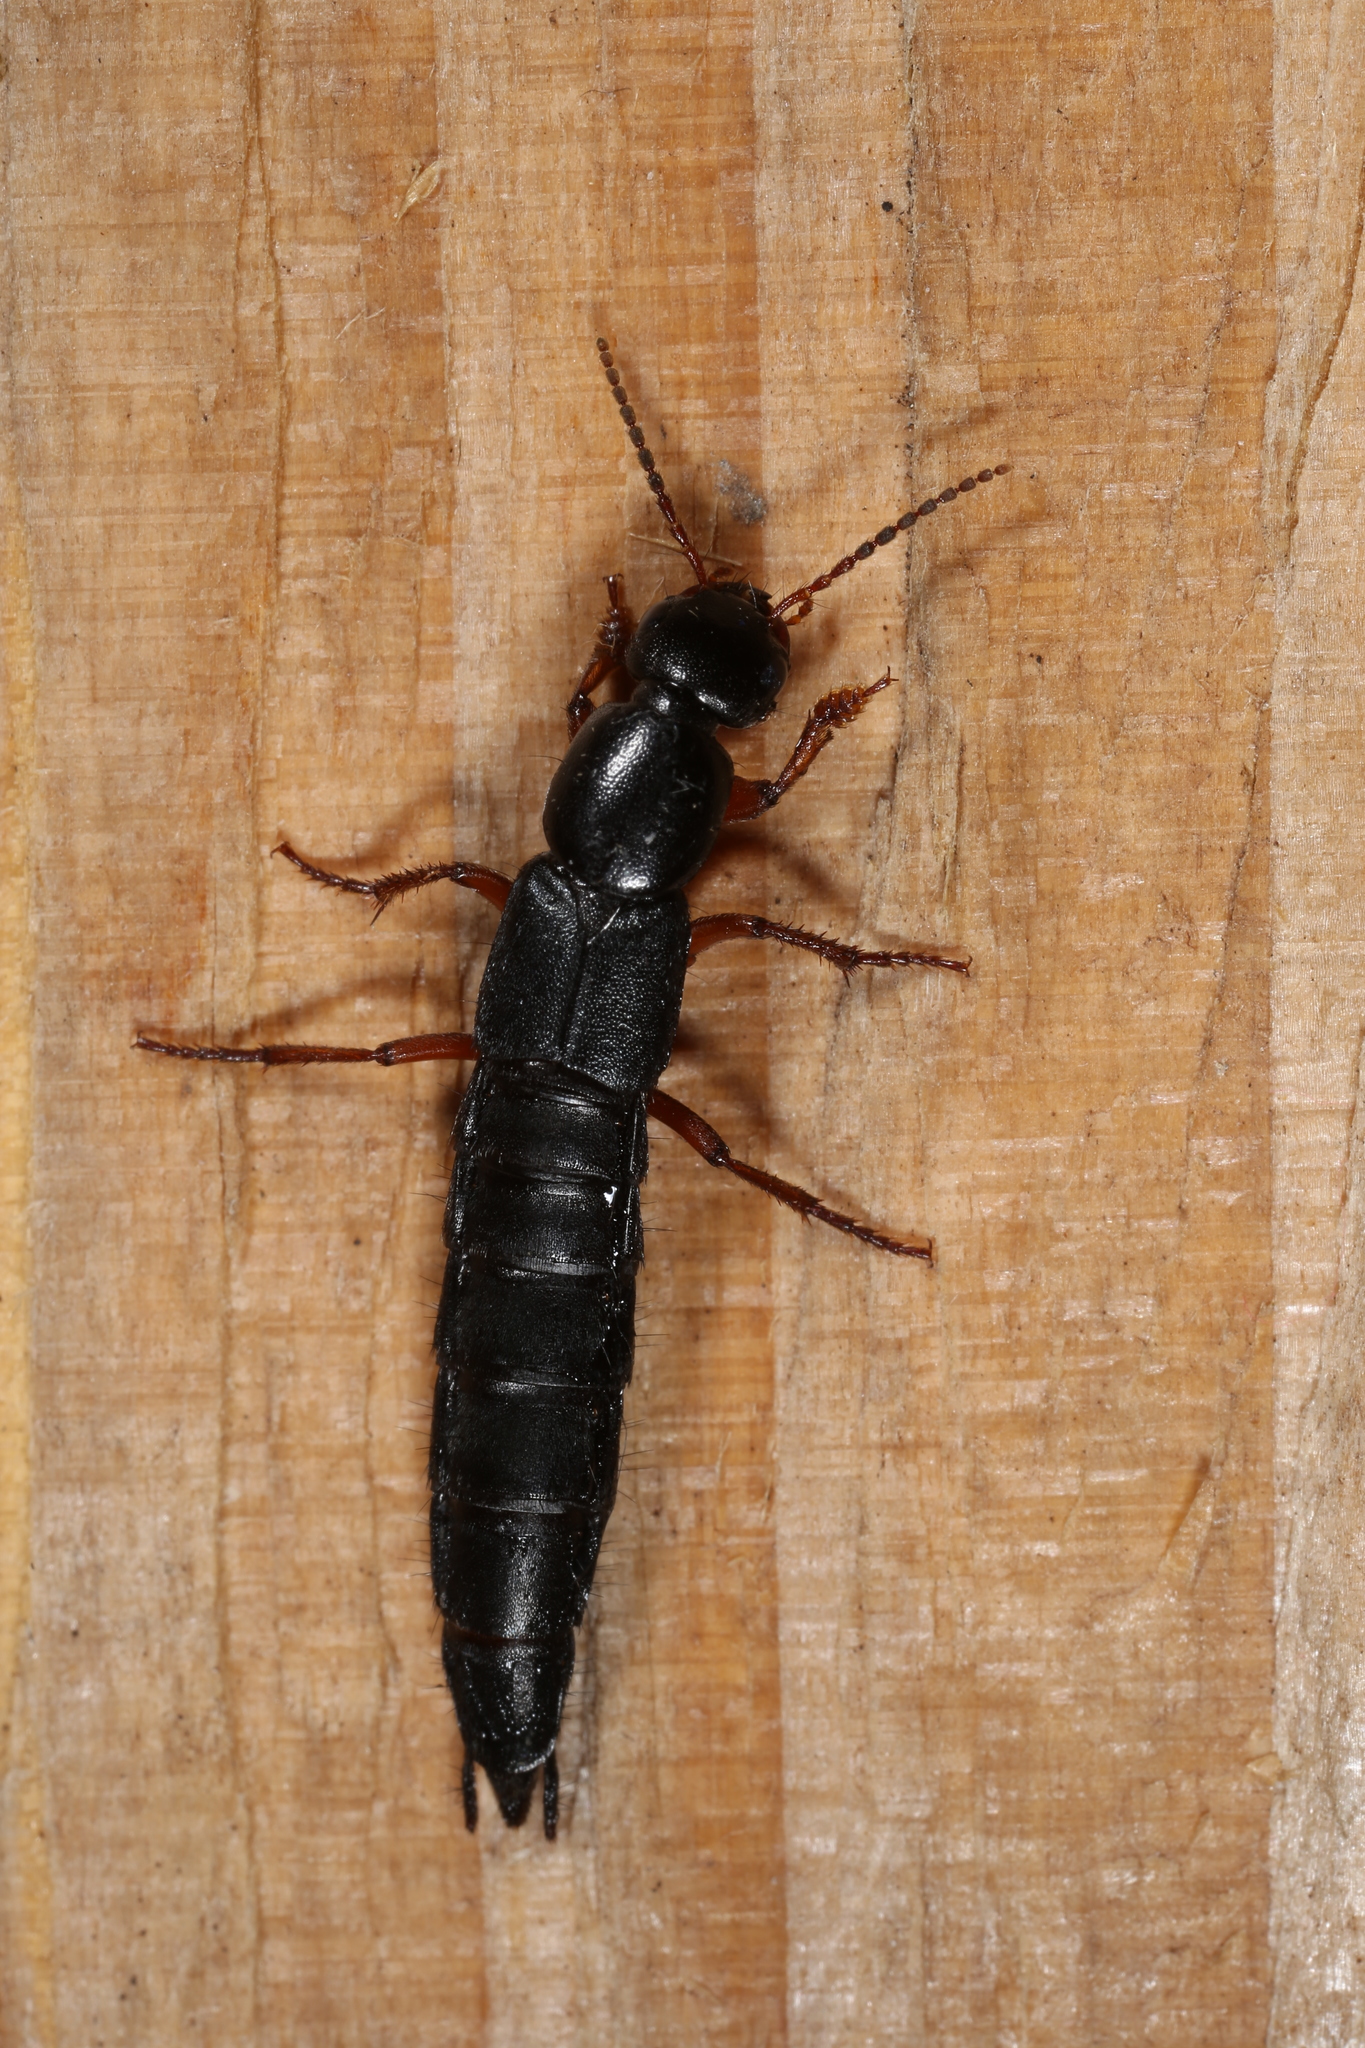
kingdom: Animalia
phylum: Arthropoda
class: Insecta
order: Coleoptera
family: Staphylinidae
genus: Tasgius
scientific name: Tasgius pedator
